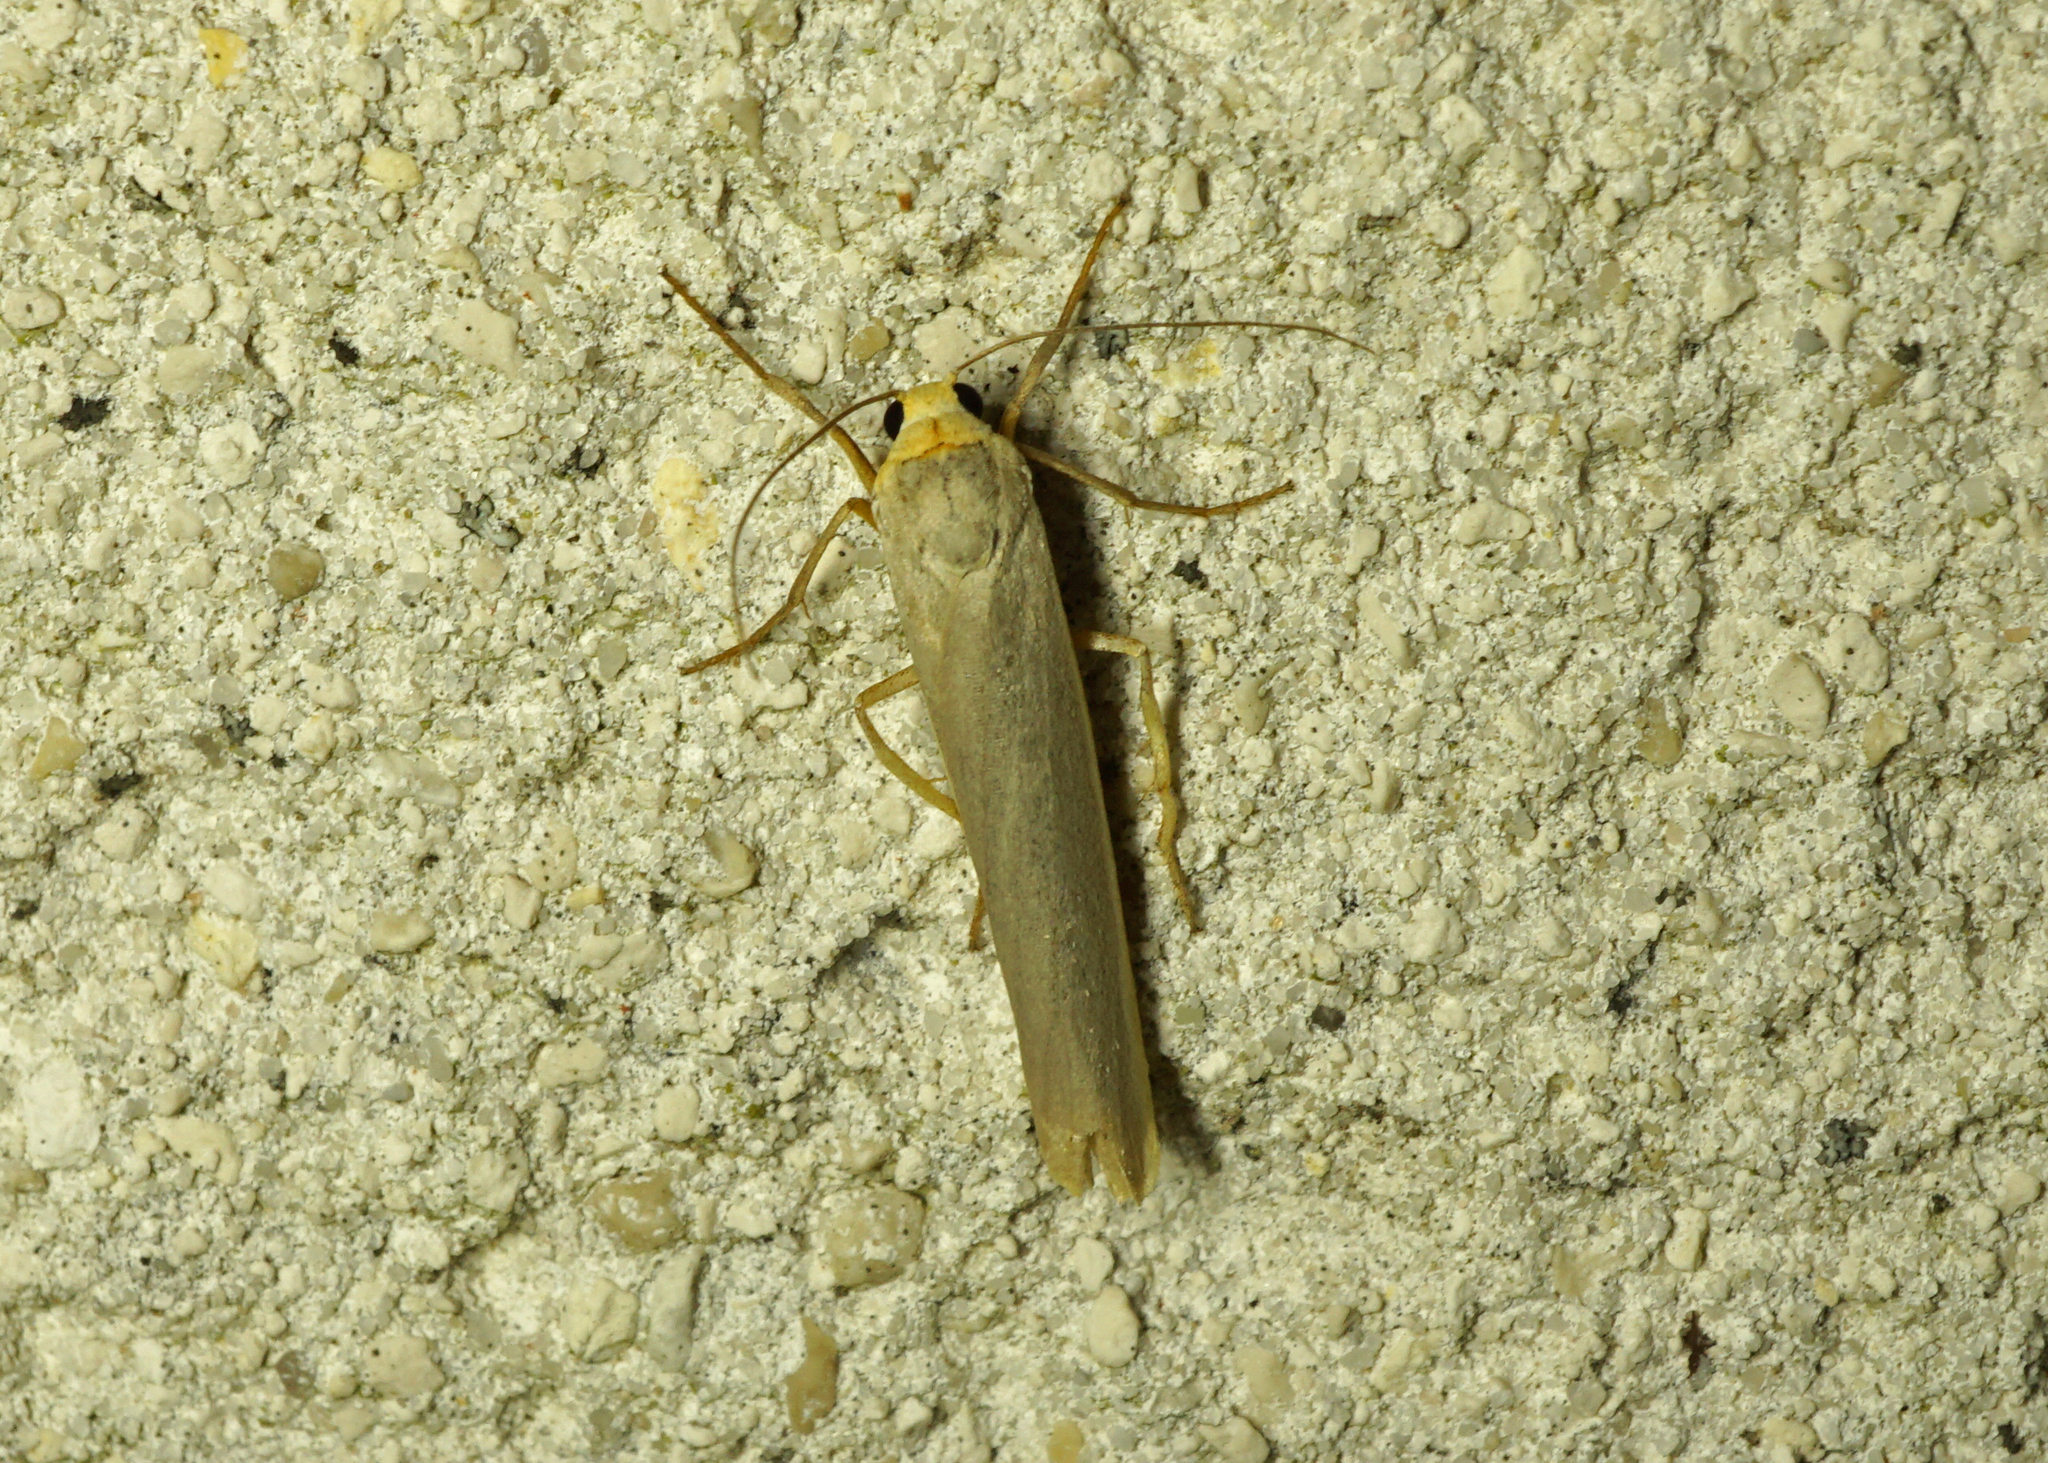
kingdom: Animalia
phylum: Arthropoda
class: Insecta
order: Lepidoptera
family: Erebidae
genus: Manulea
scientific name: Manulea complana
